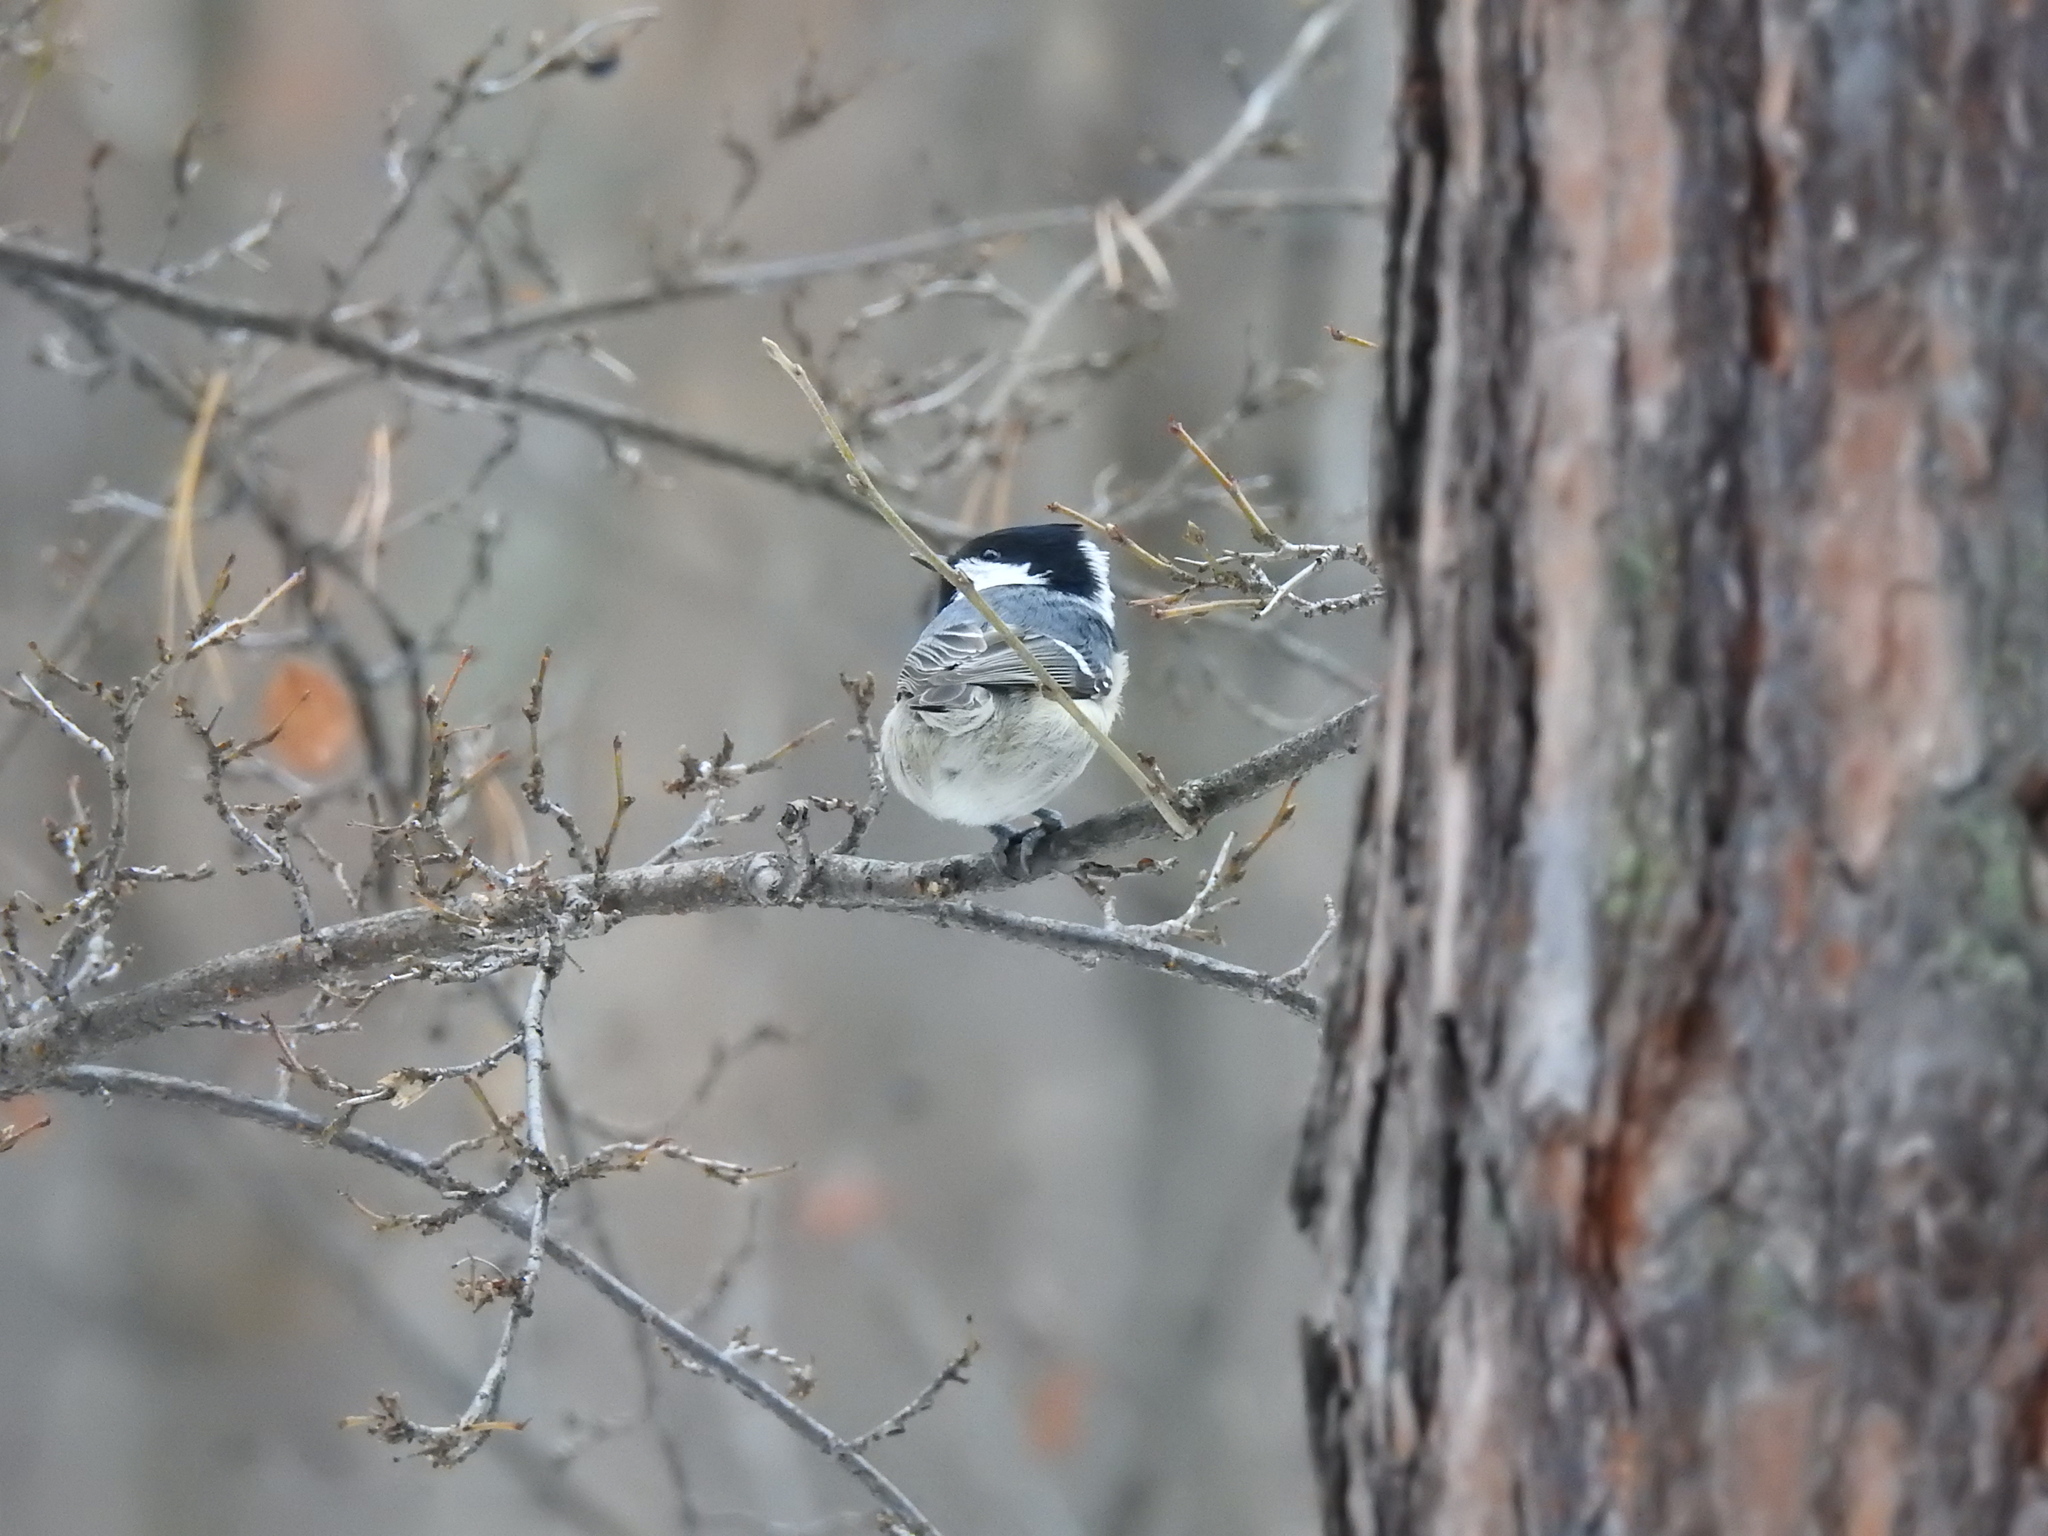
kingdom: Animalia
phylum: Chordata
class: Aves
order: Passeriformes
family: Paridae
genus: Periparus
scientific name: Periparus ater
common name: Coal tit
